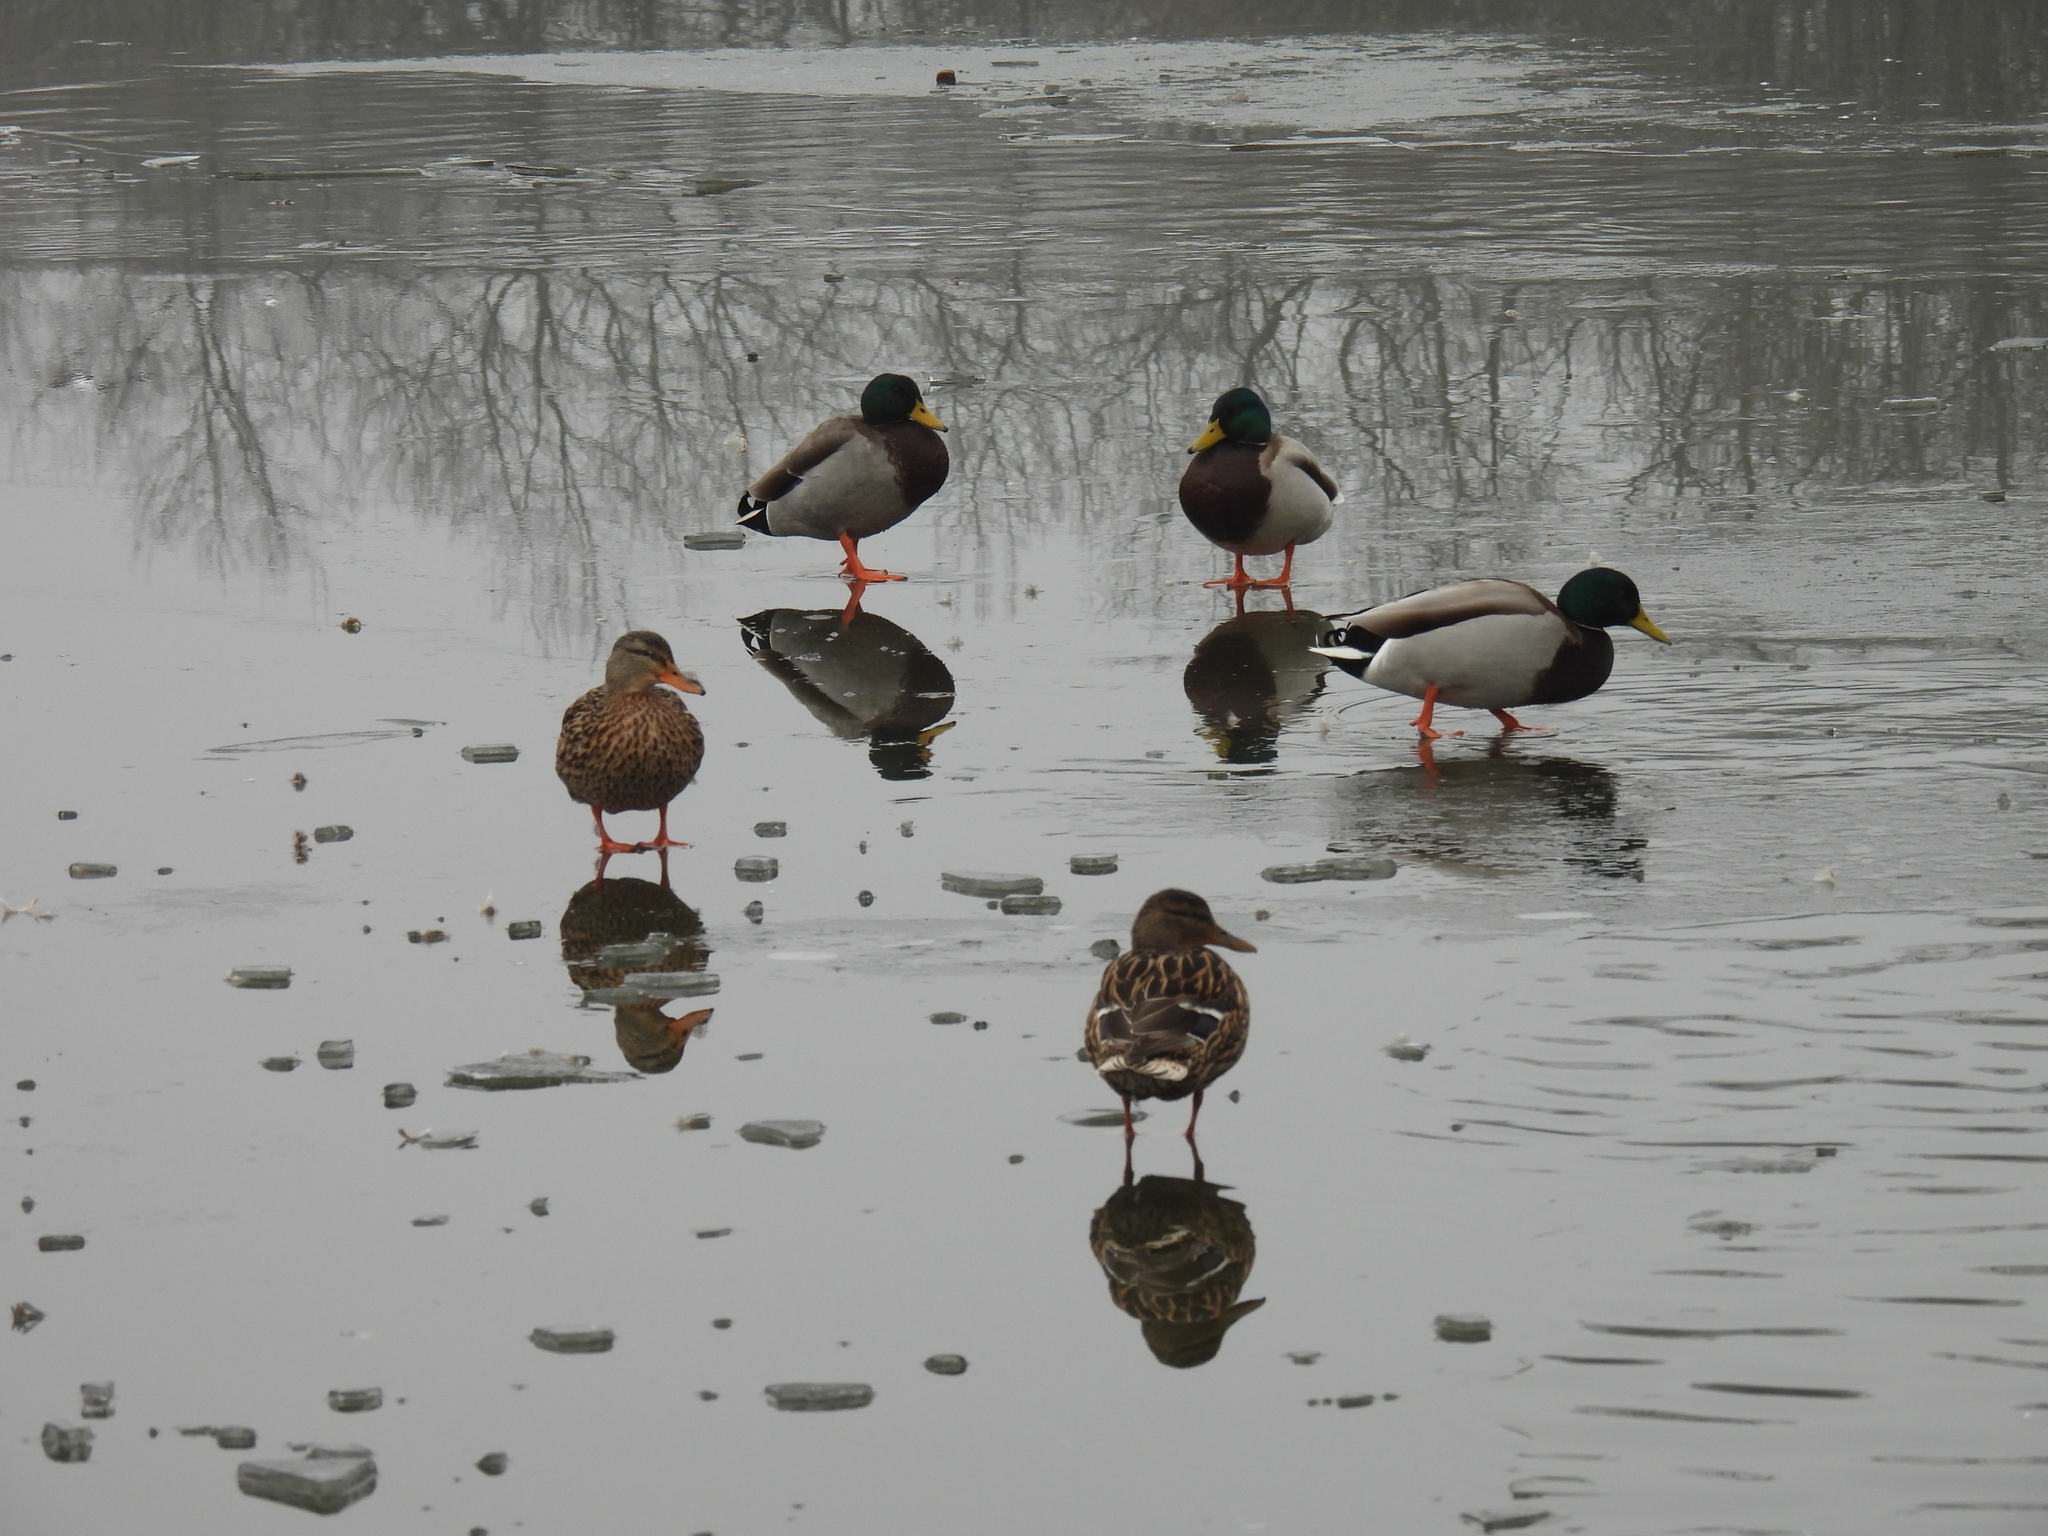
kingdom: Animalia
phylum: Chordata
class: Aves
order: Anseriformes
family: Anatidae
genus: Anas
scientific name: Anas platyrhynchos
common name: Mallard
